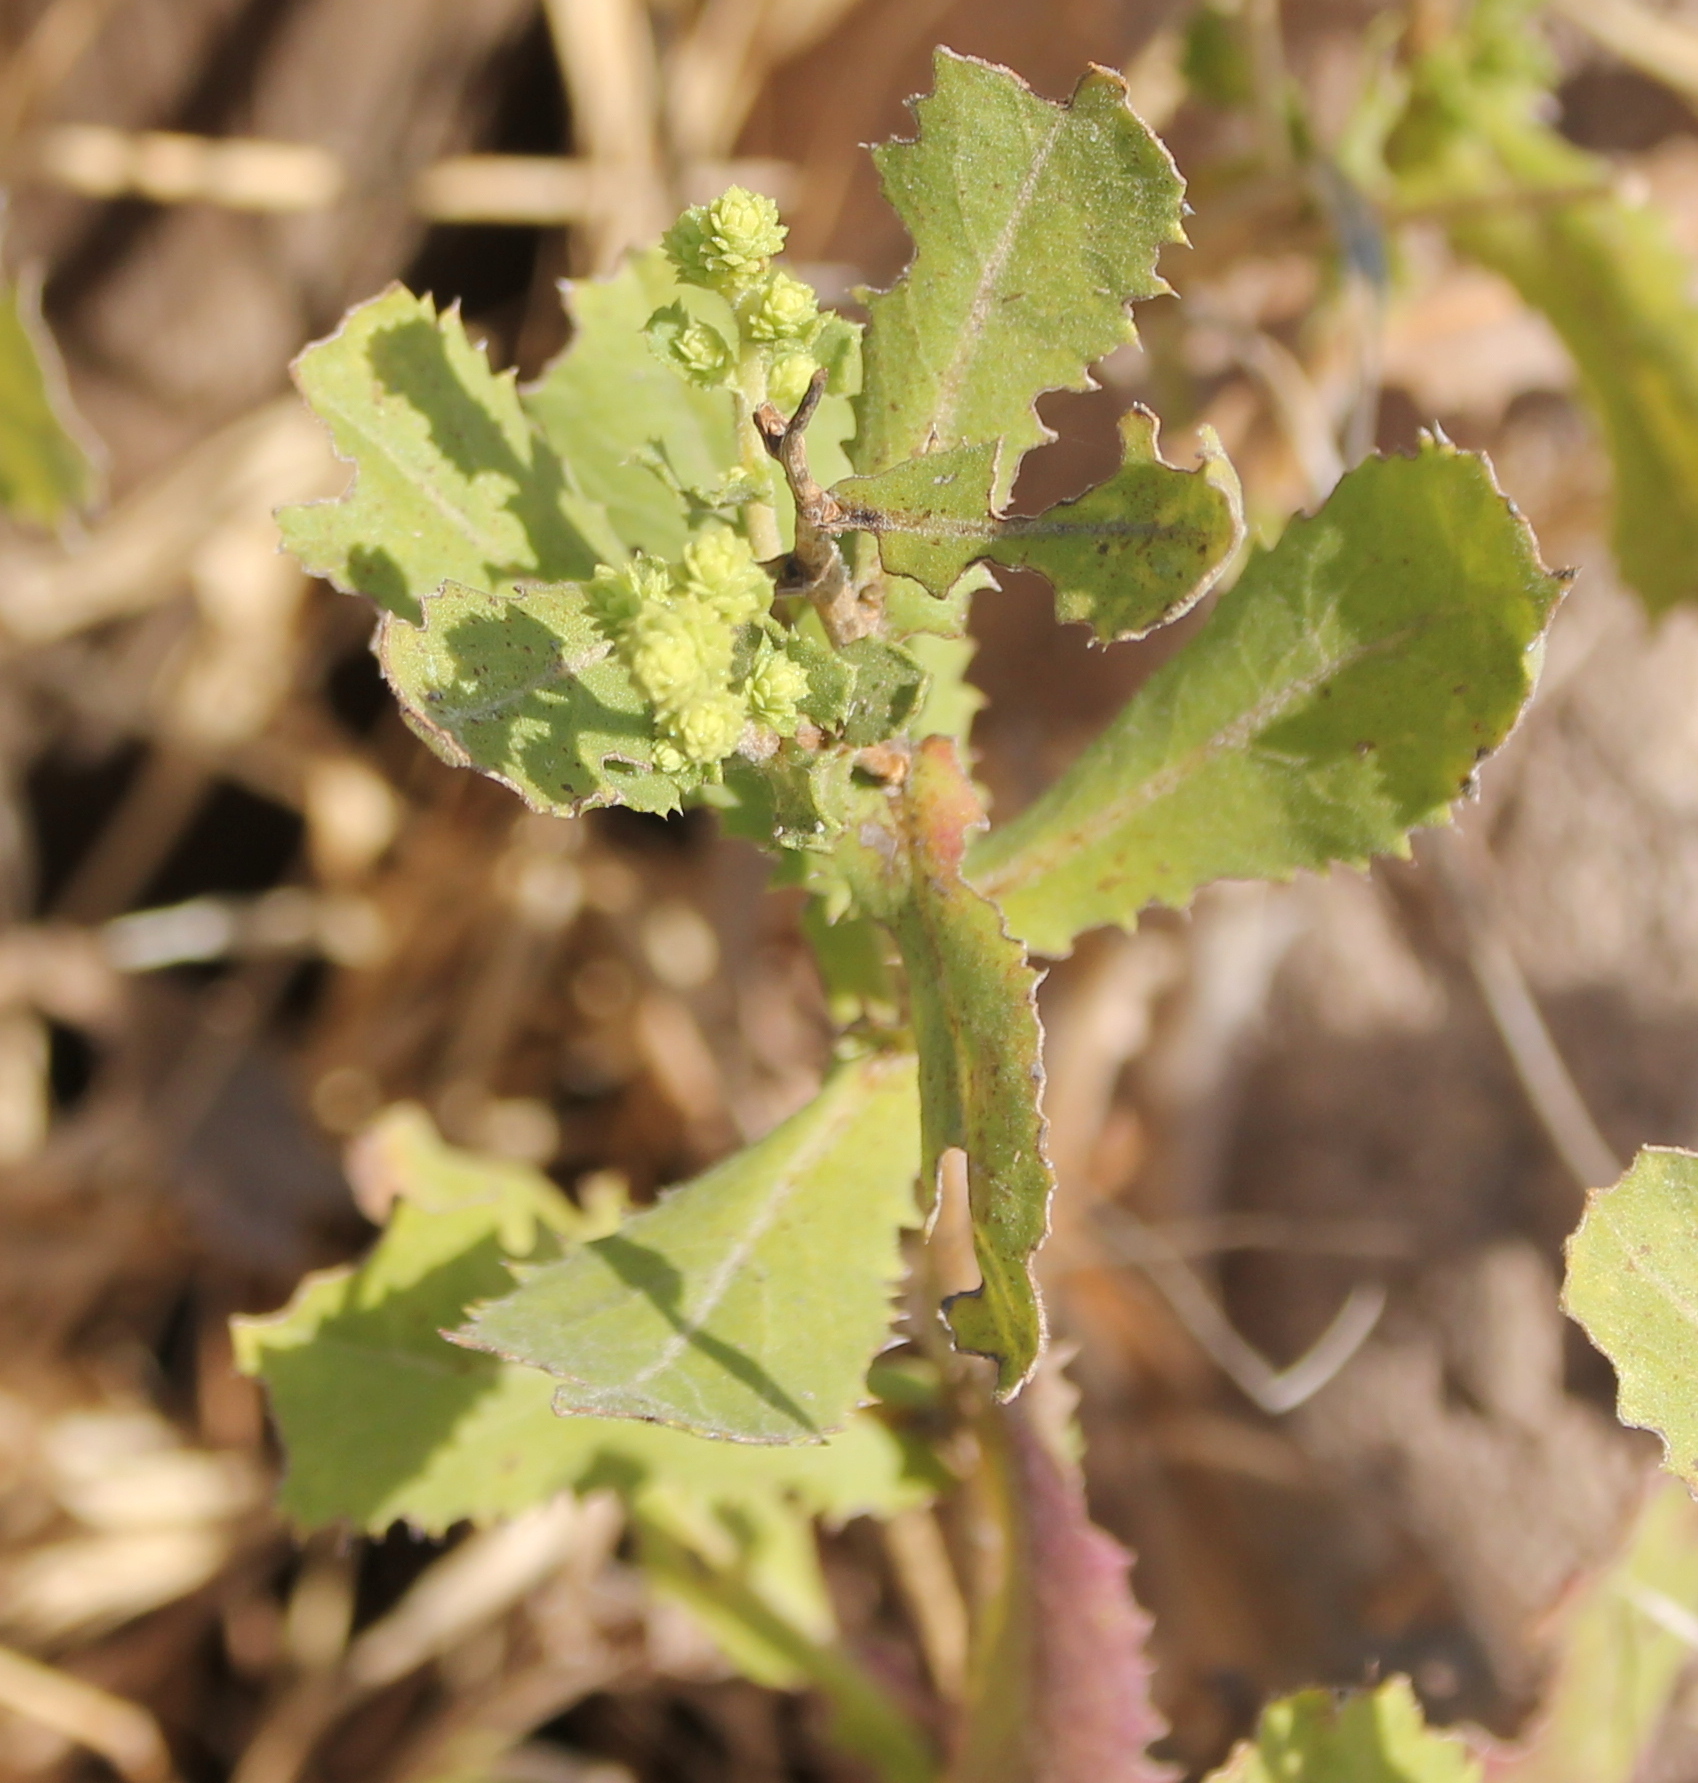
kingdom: Plantae
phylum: Tracheophyta
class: Magnoliopsida
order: Asterales
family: Asteraceae
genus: Hazardia
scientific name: Hazardia squarrosa
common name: Saw-tooth goldenbush
